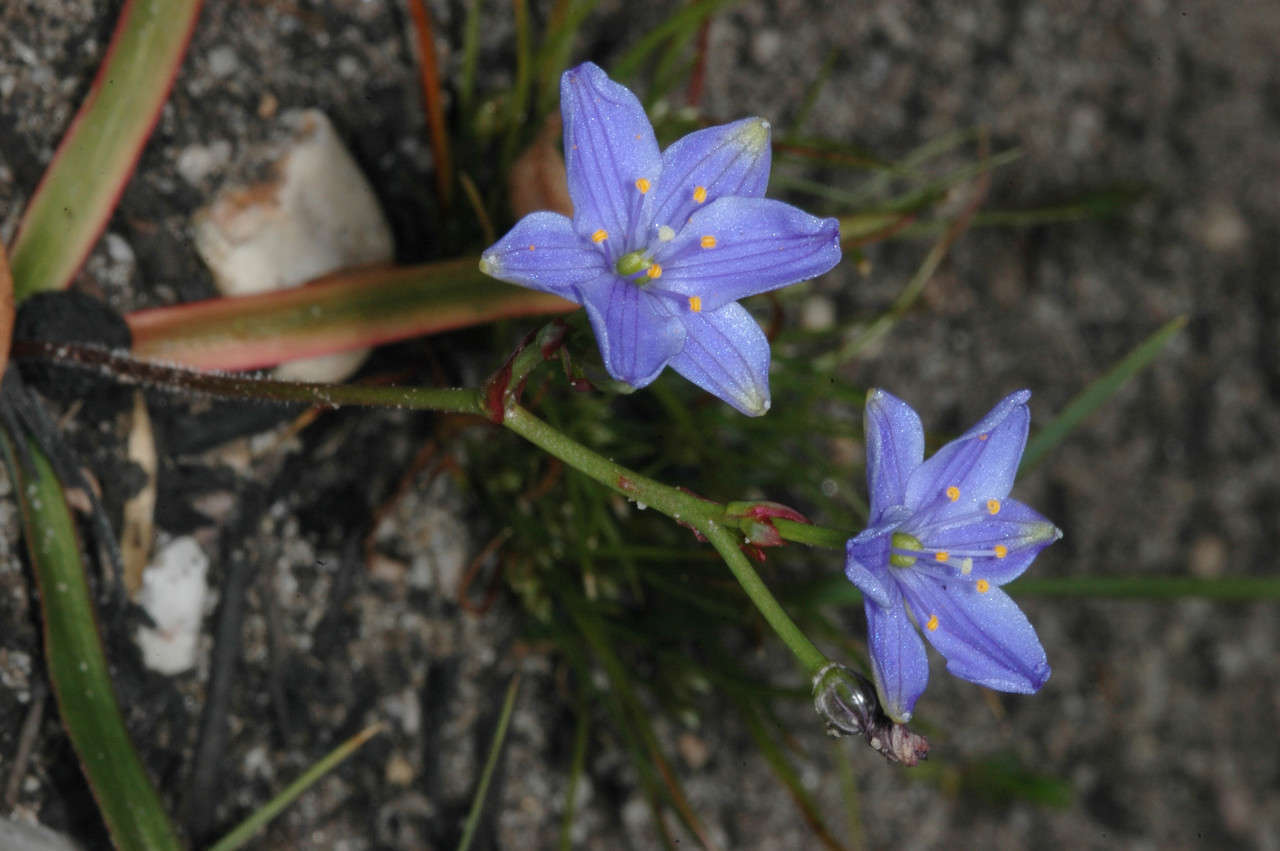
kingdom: Plantae
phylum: Tracheophyta
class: Liliopsida
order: Asparagales
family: Asphodelaceae
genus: Chamaescilla
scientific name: Chamaescilla corymbosa
